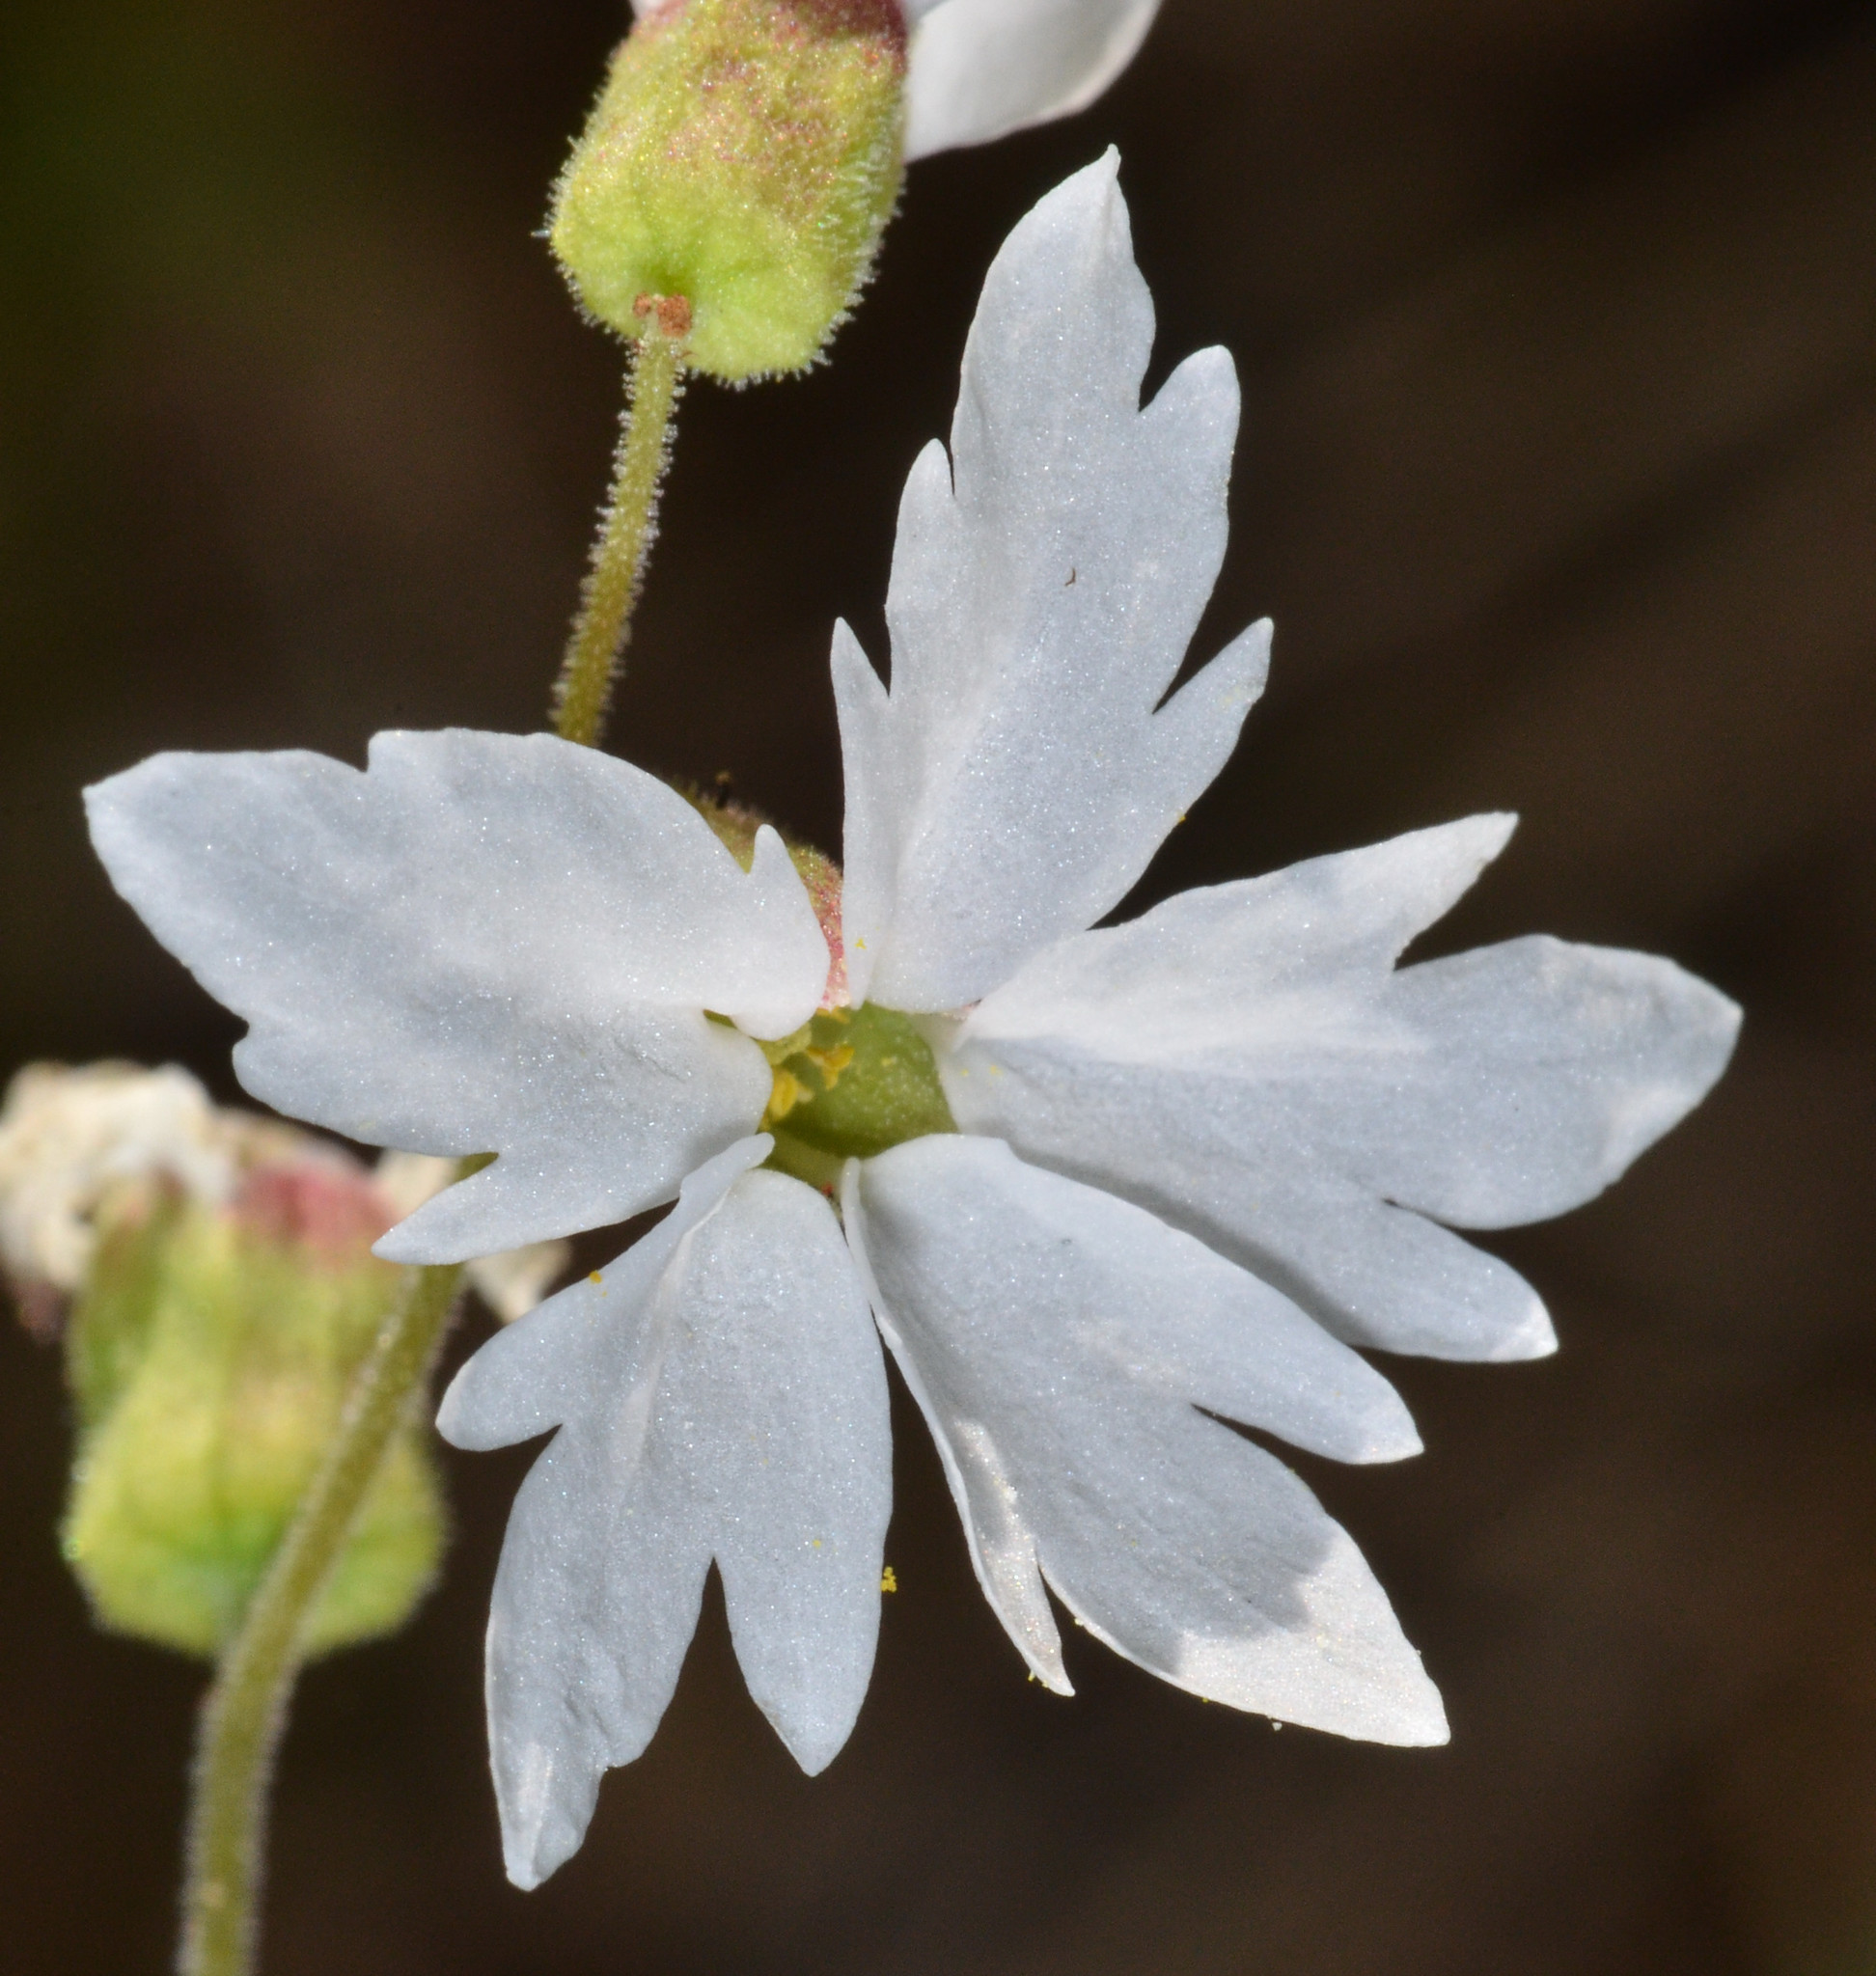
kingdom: Plantae
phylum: Tracheophyta
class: Magnoliopsida
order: Saxifragales
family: Saxifragaceae
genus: Lithophragma
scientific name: Lithophragma heterophyllum
